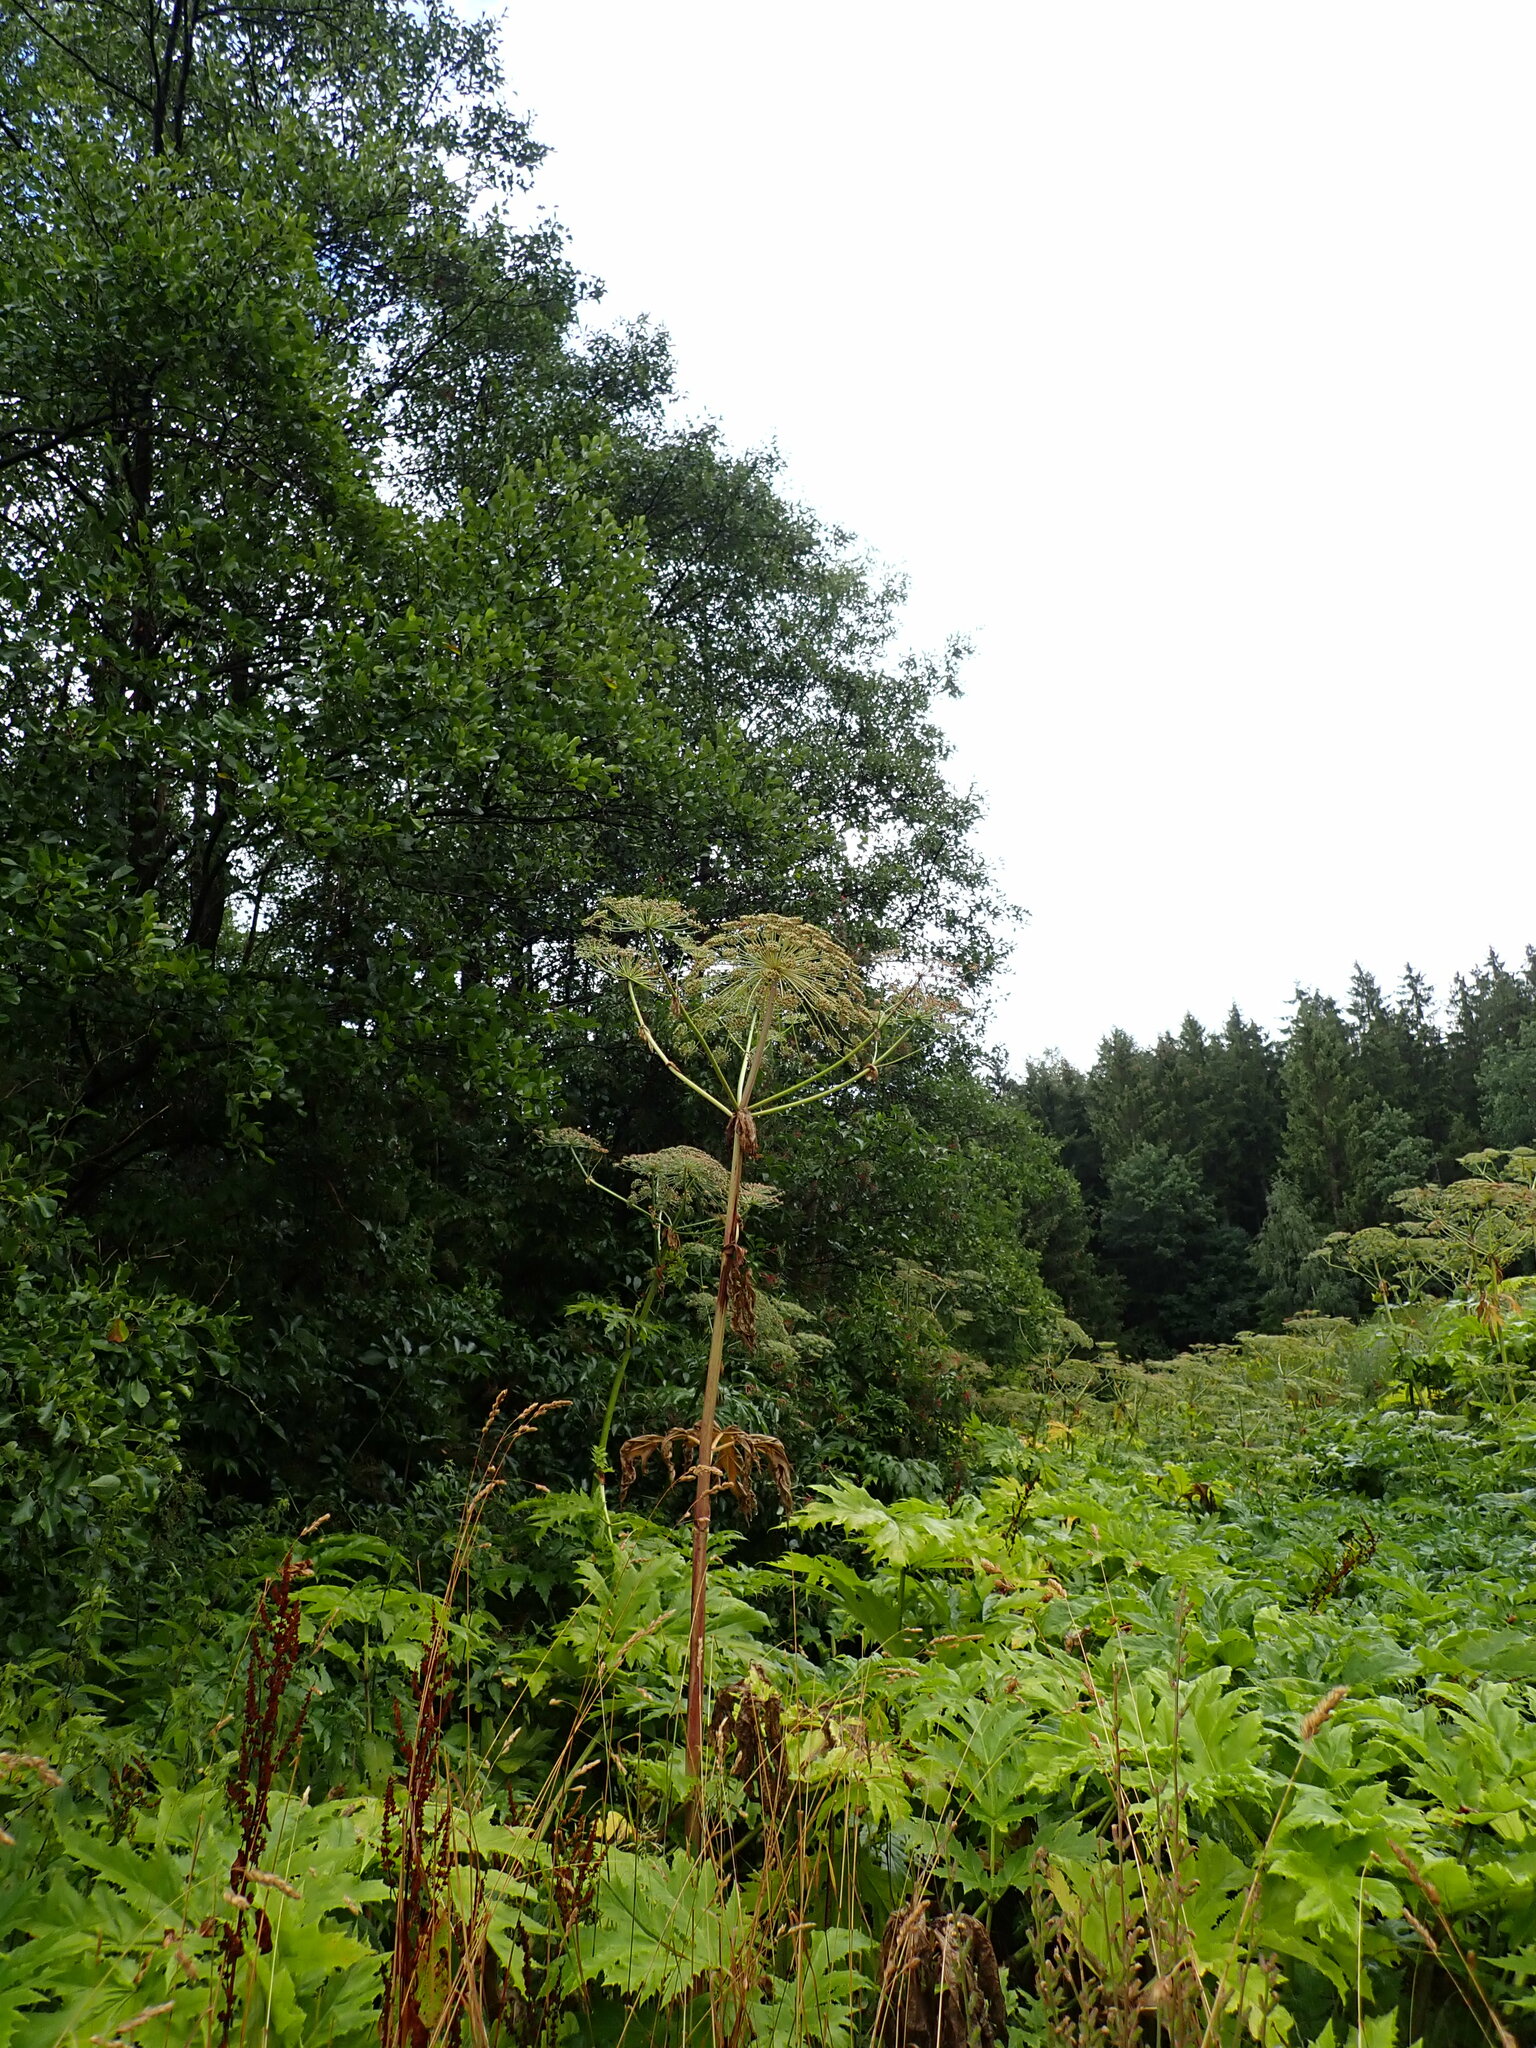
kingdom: Plantae
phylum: Tracheophyta
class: Magnoliopsida
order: Apiales
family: Apiaceae
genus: Heracleum
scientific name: Heracleum mantegazzianum
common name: Giant hogweed
